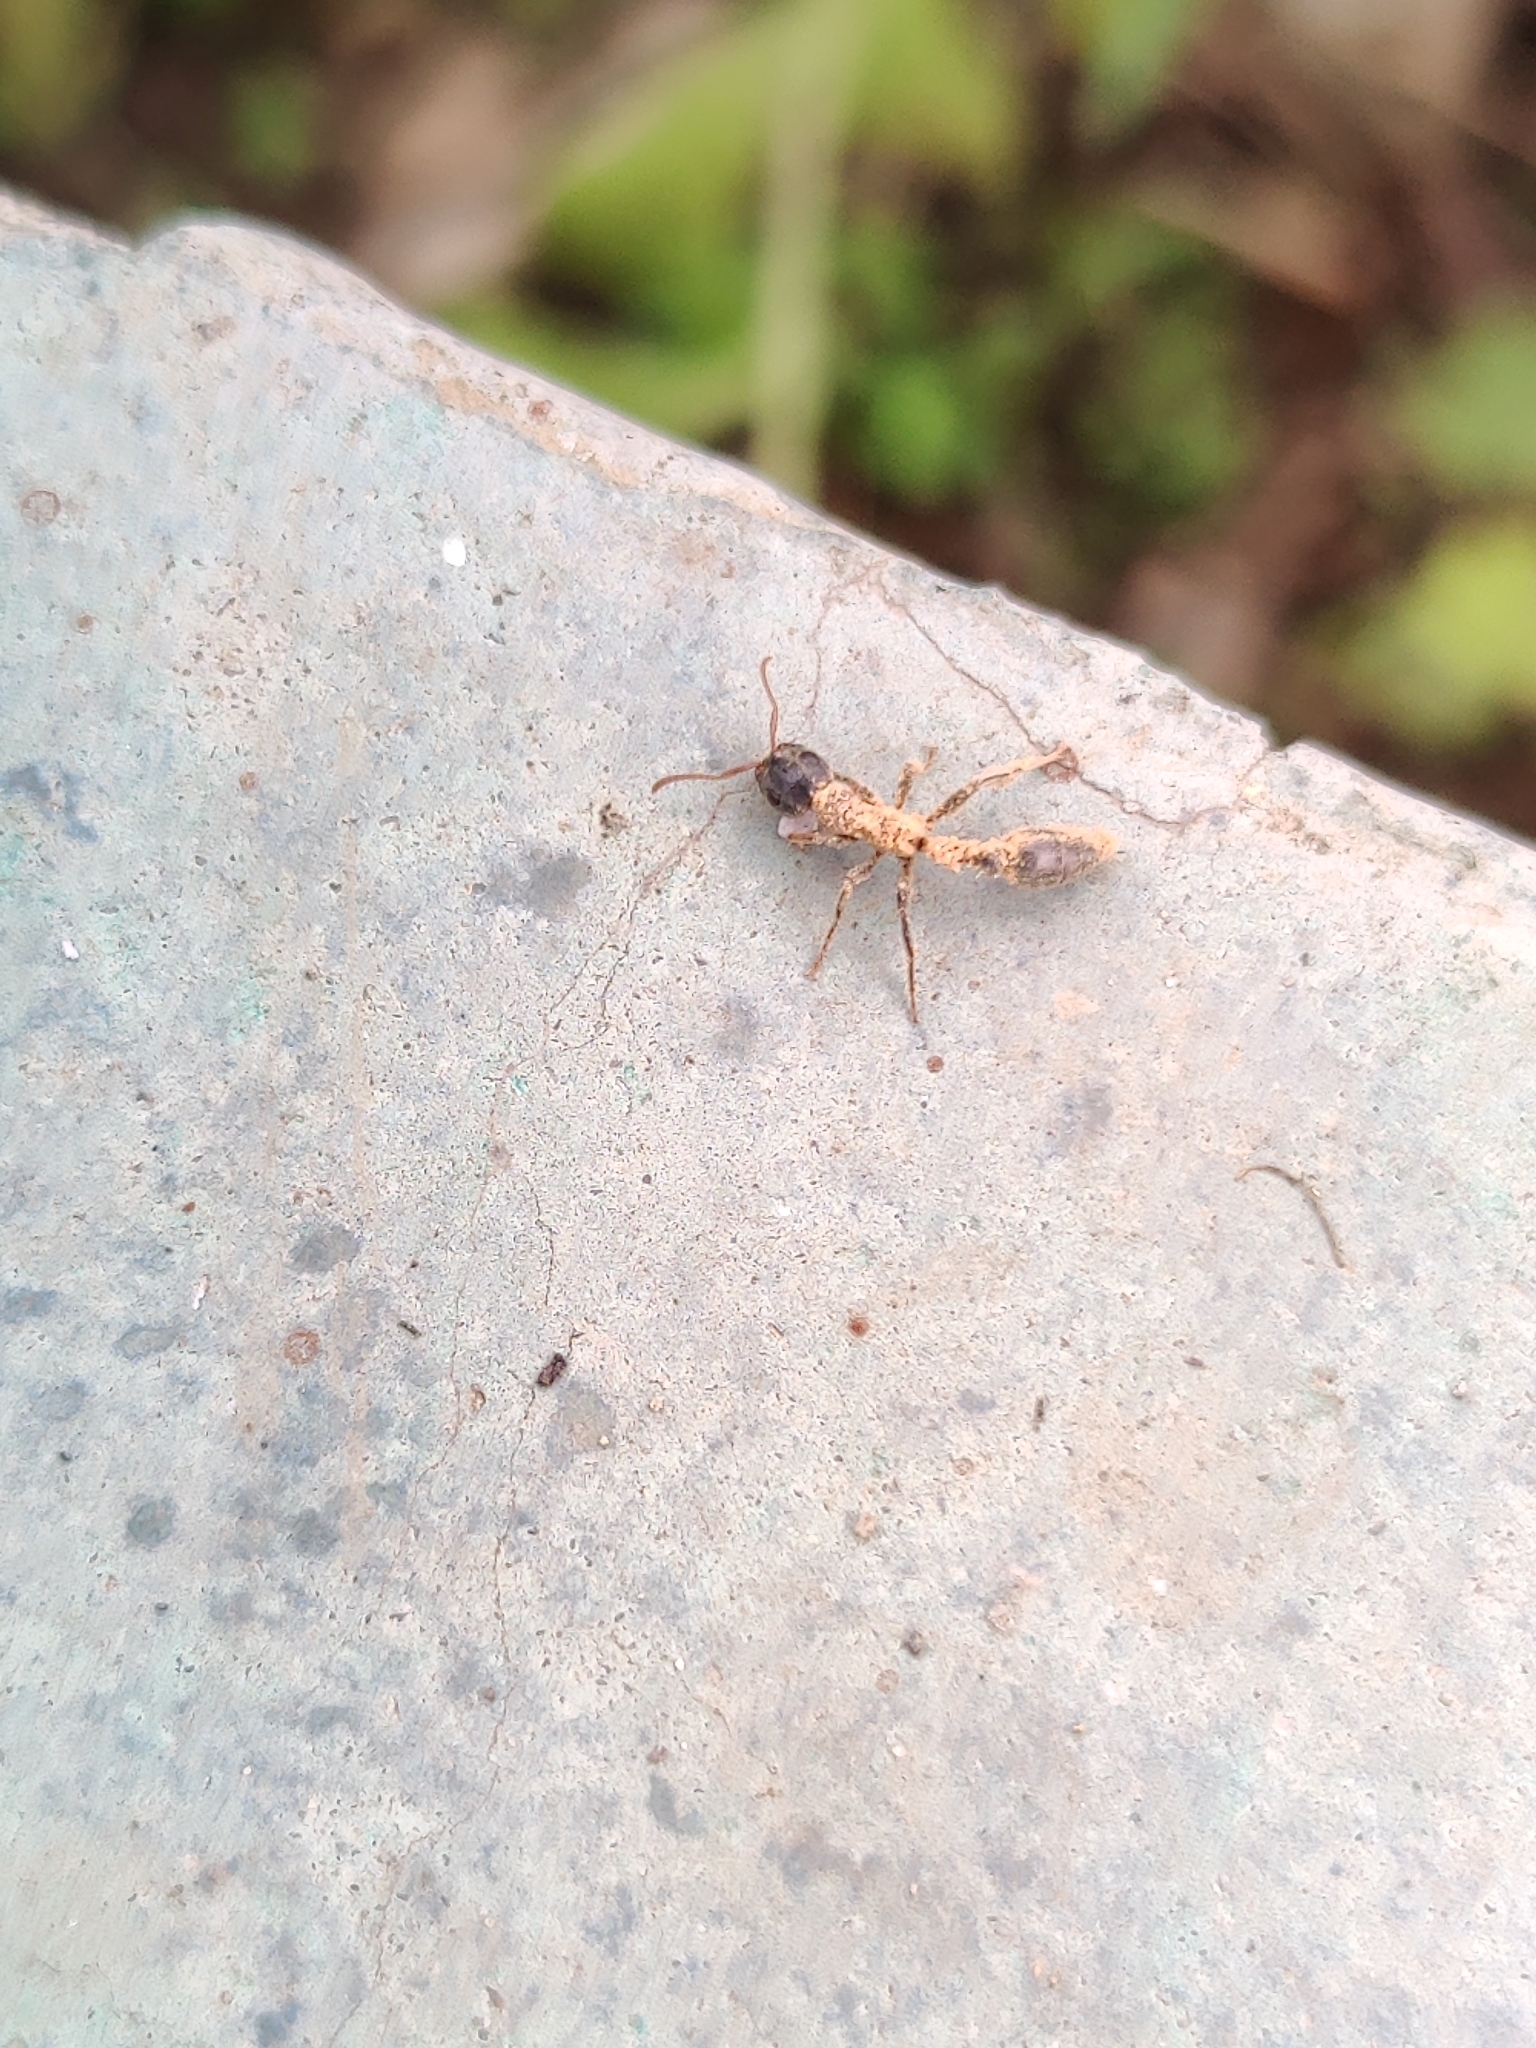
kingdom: Animalia
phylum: Arthropoda
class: Insecta
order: Hymenoptera
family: Formicidae
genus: Tetraponera
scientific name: Tetraponera rufonigra
